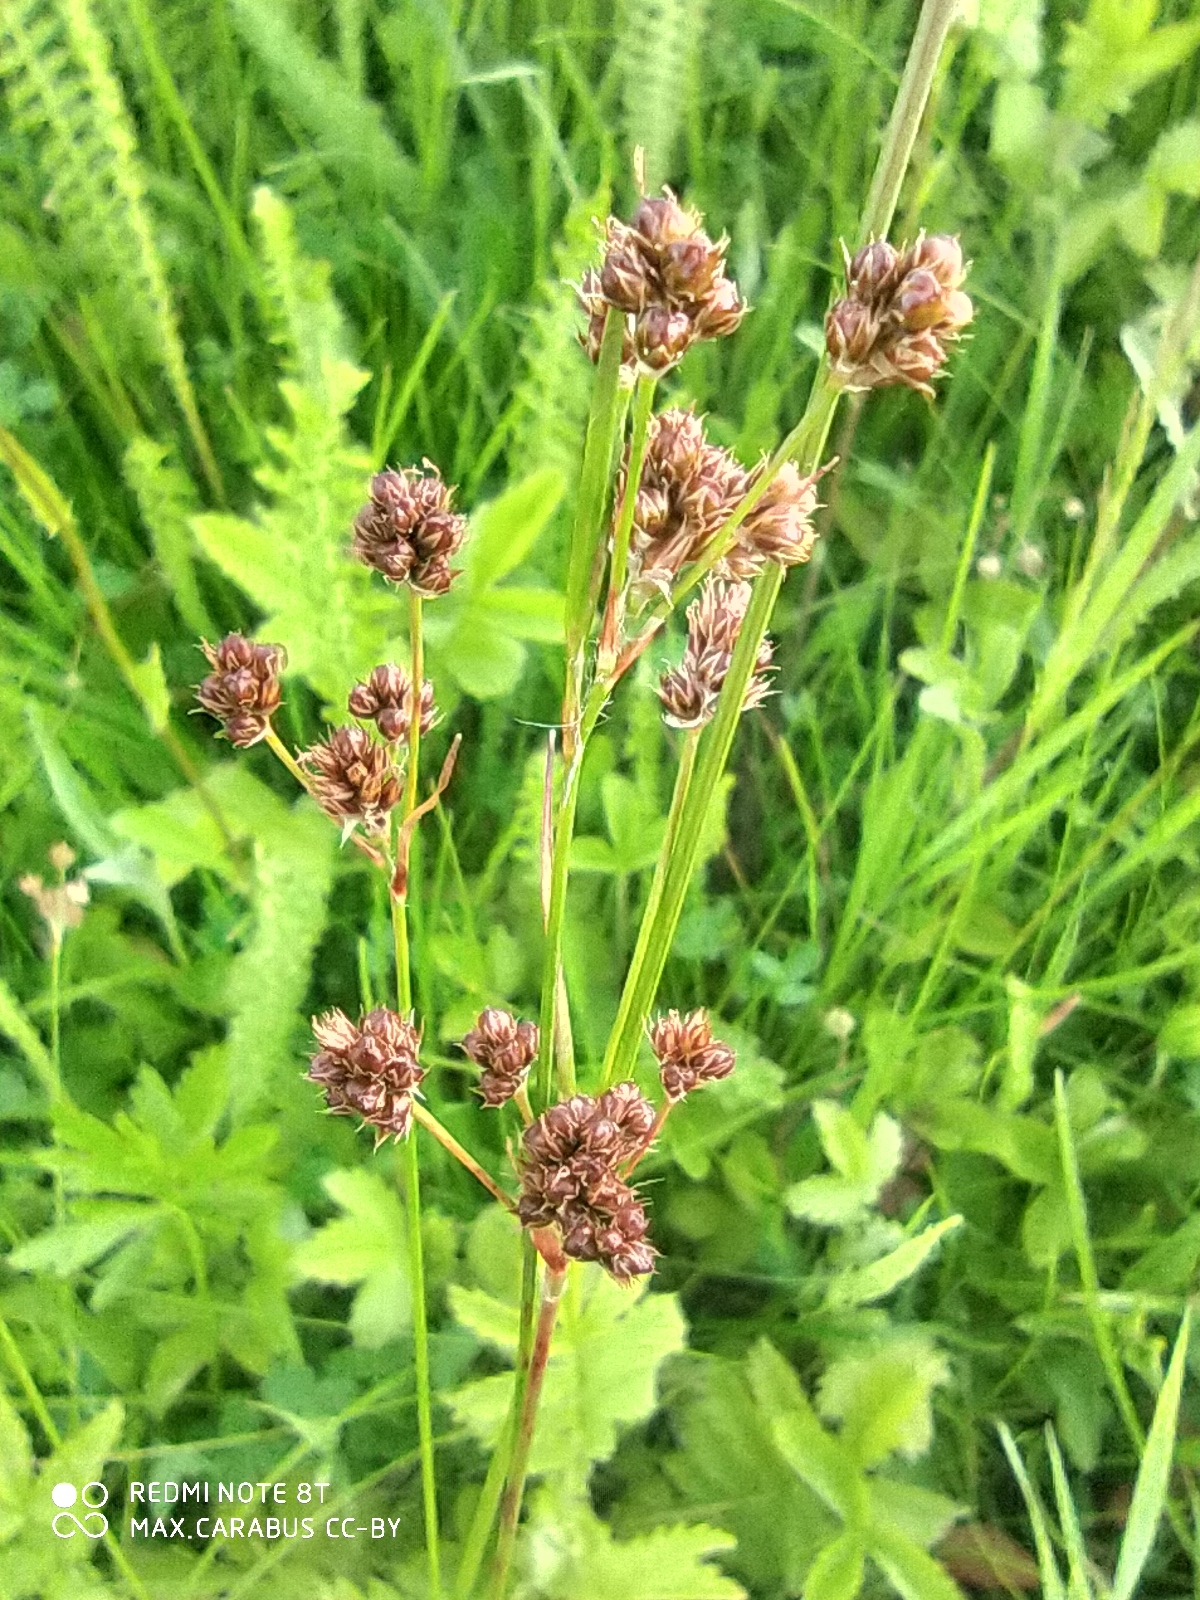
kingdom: Plantae
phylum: Tracheophyta
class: Liliopsida
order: Poales
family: Juncaceae
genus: Luzula
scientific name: Luzula multiflora
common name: Heath wood-rush
